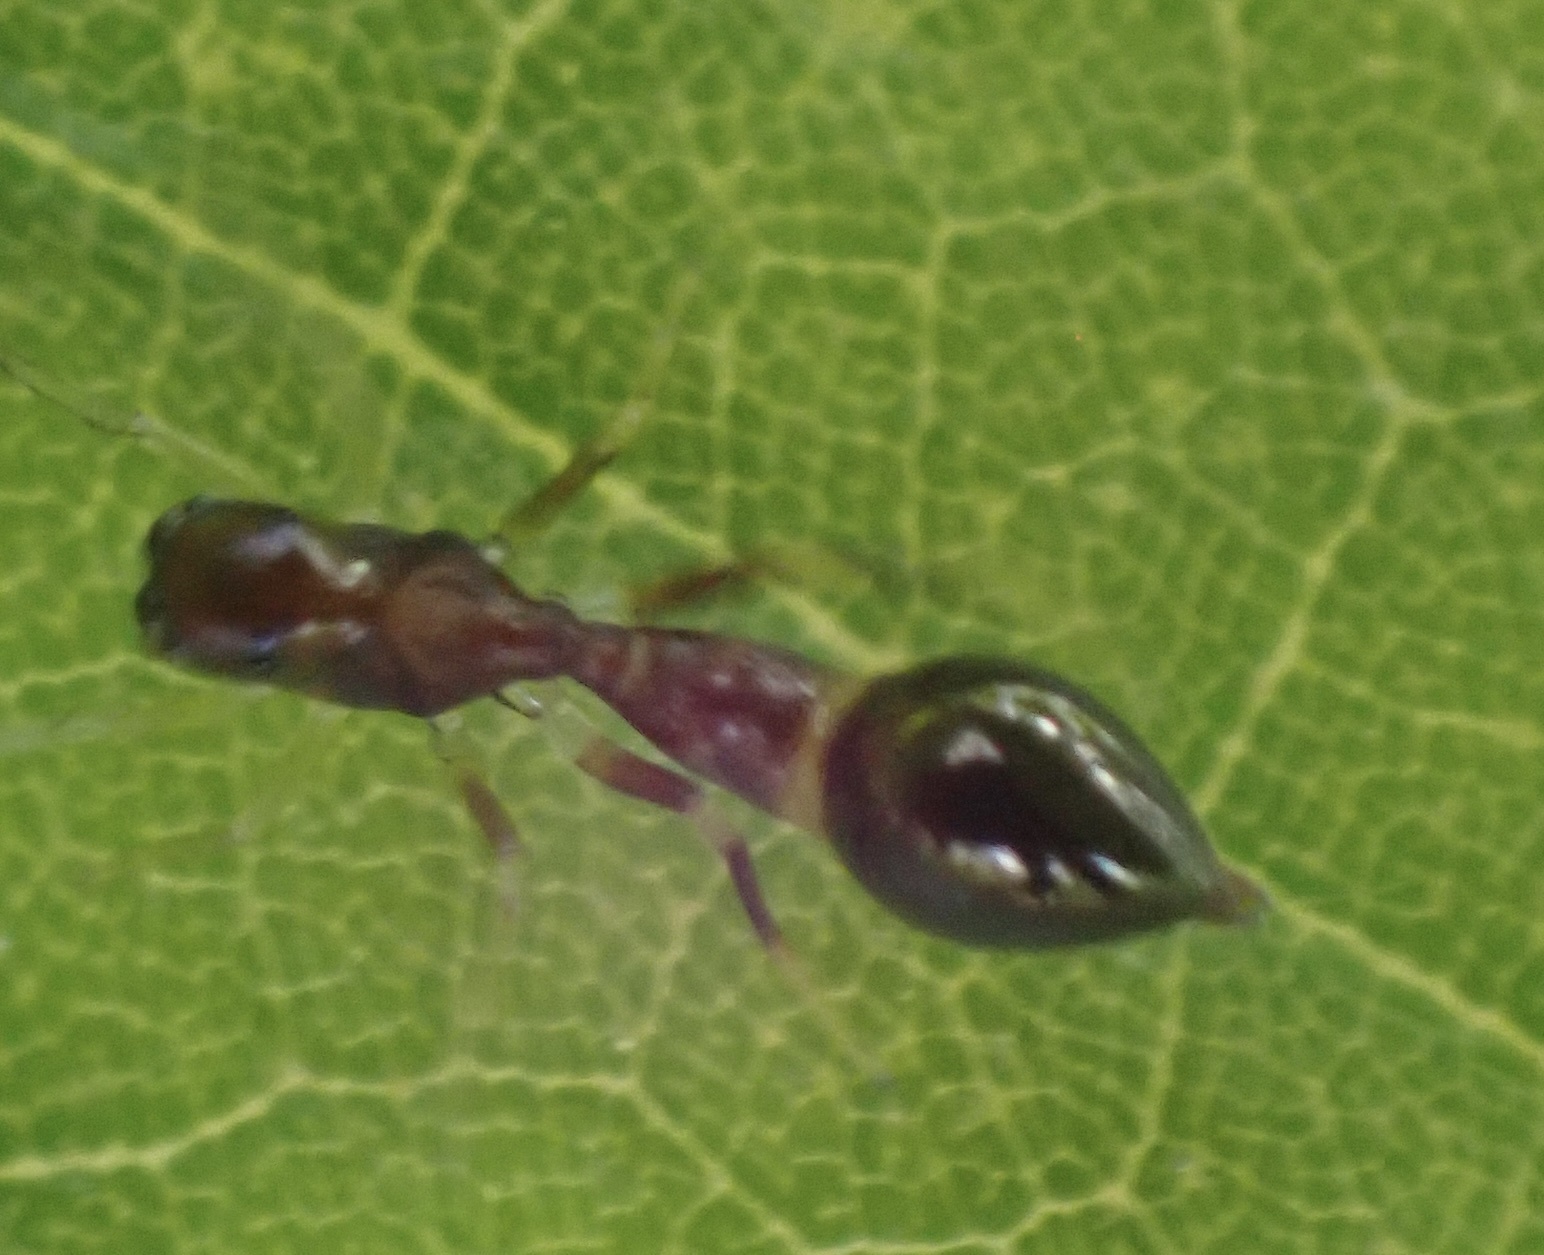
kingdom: Animalia
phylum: Arthropoda
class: Arachnida
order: Araneae
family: Salticidae
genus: Synemosyna
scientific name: Synemosyna formica
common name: Slender ant-mimic jumping spider
